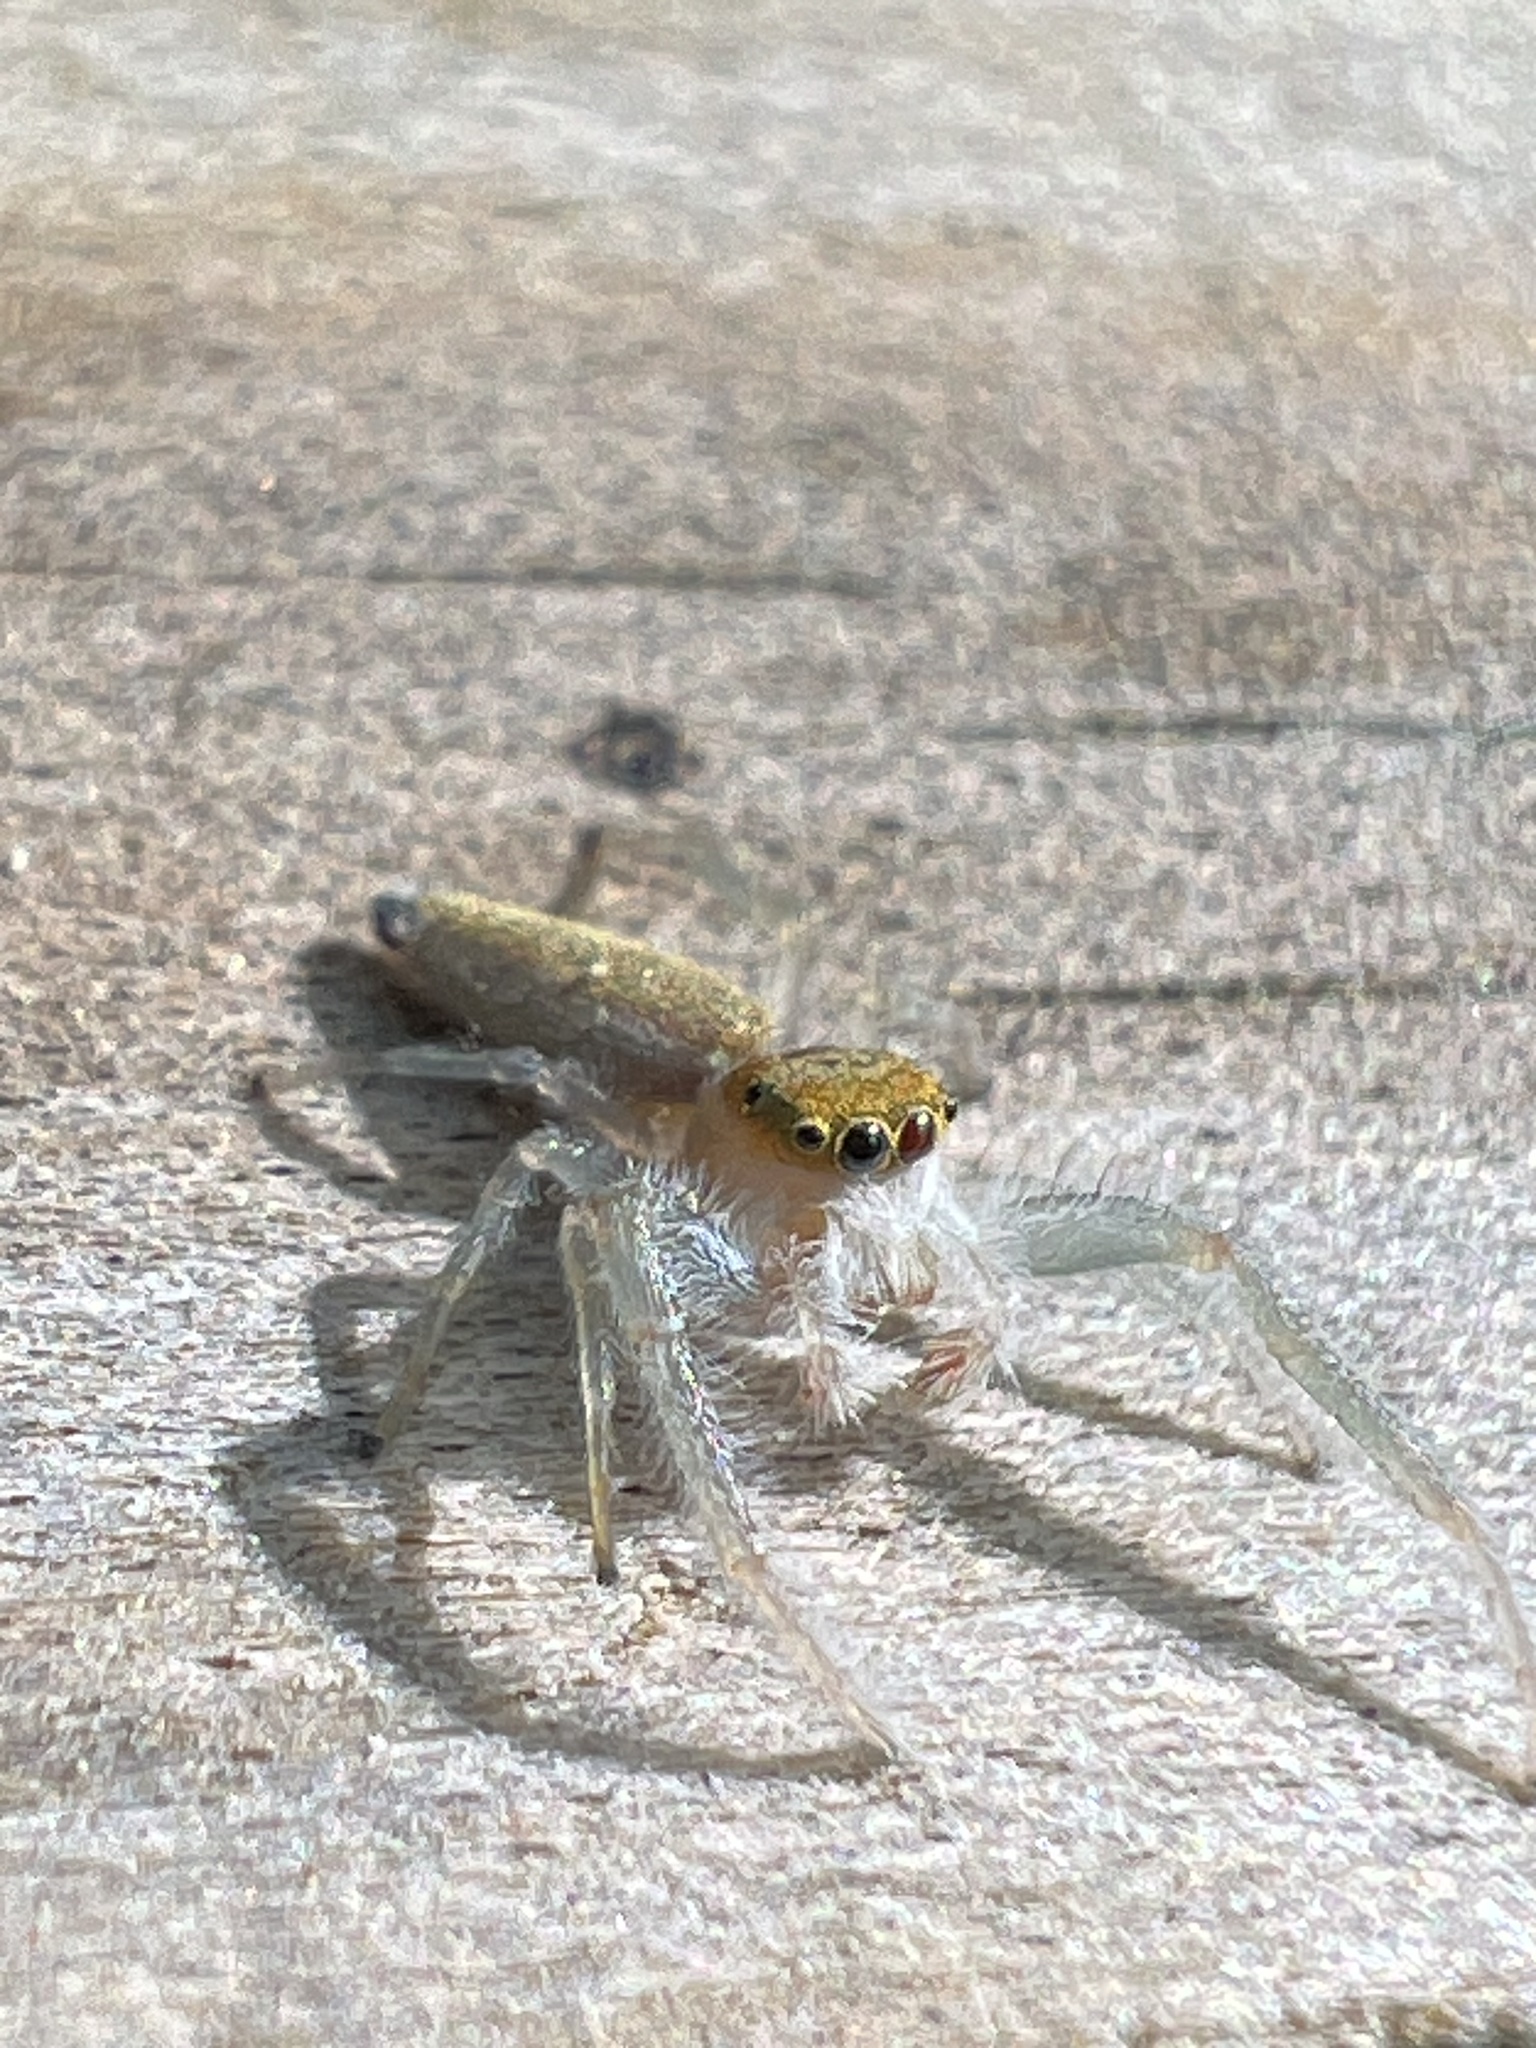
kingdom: Animalia
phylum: Arthropoda
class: Arachnida
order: Araneae
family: Salticidae
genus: Hentzia
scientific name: Hentzia mitrata
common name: White-jawed jumping spider
